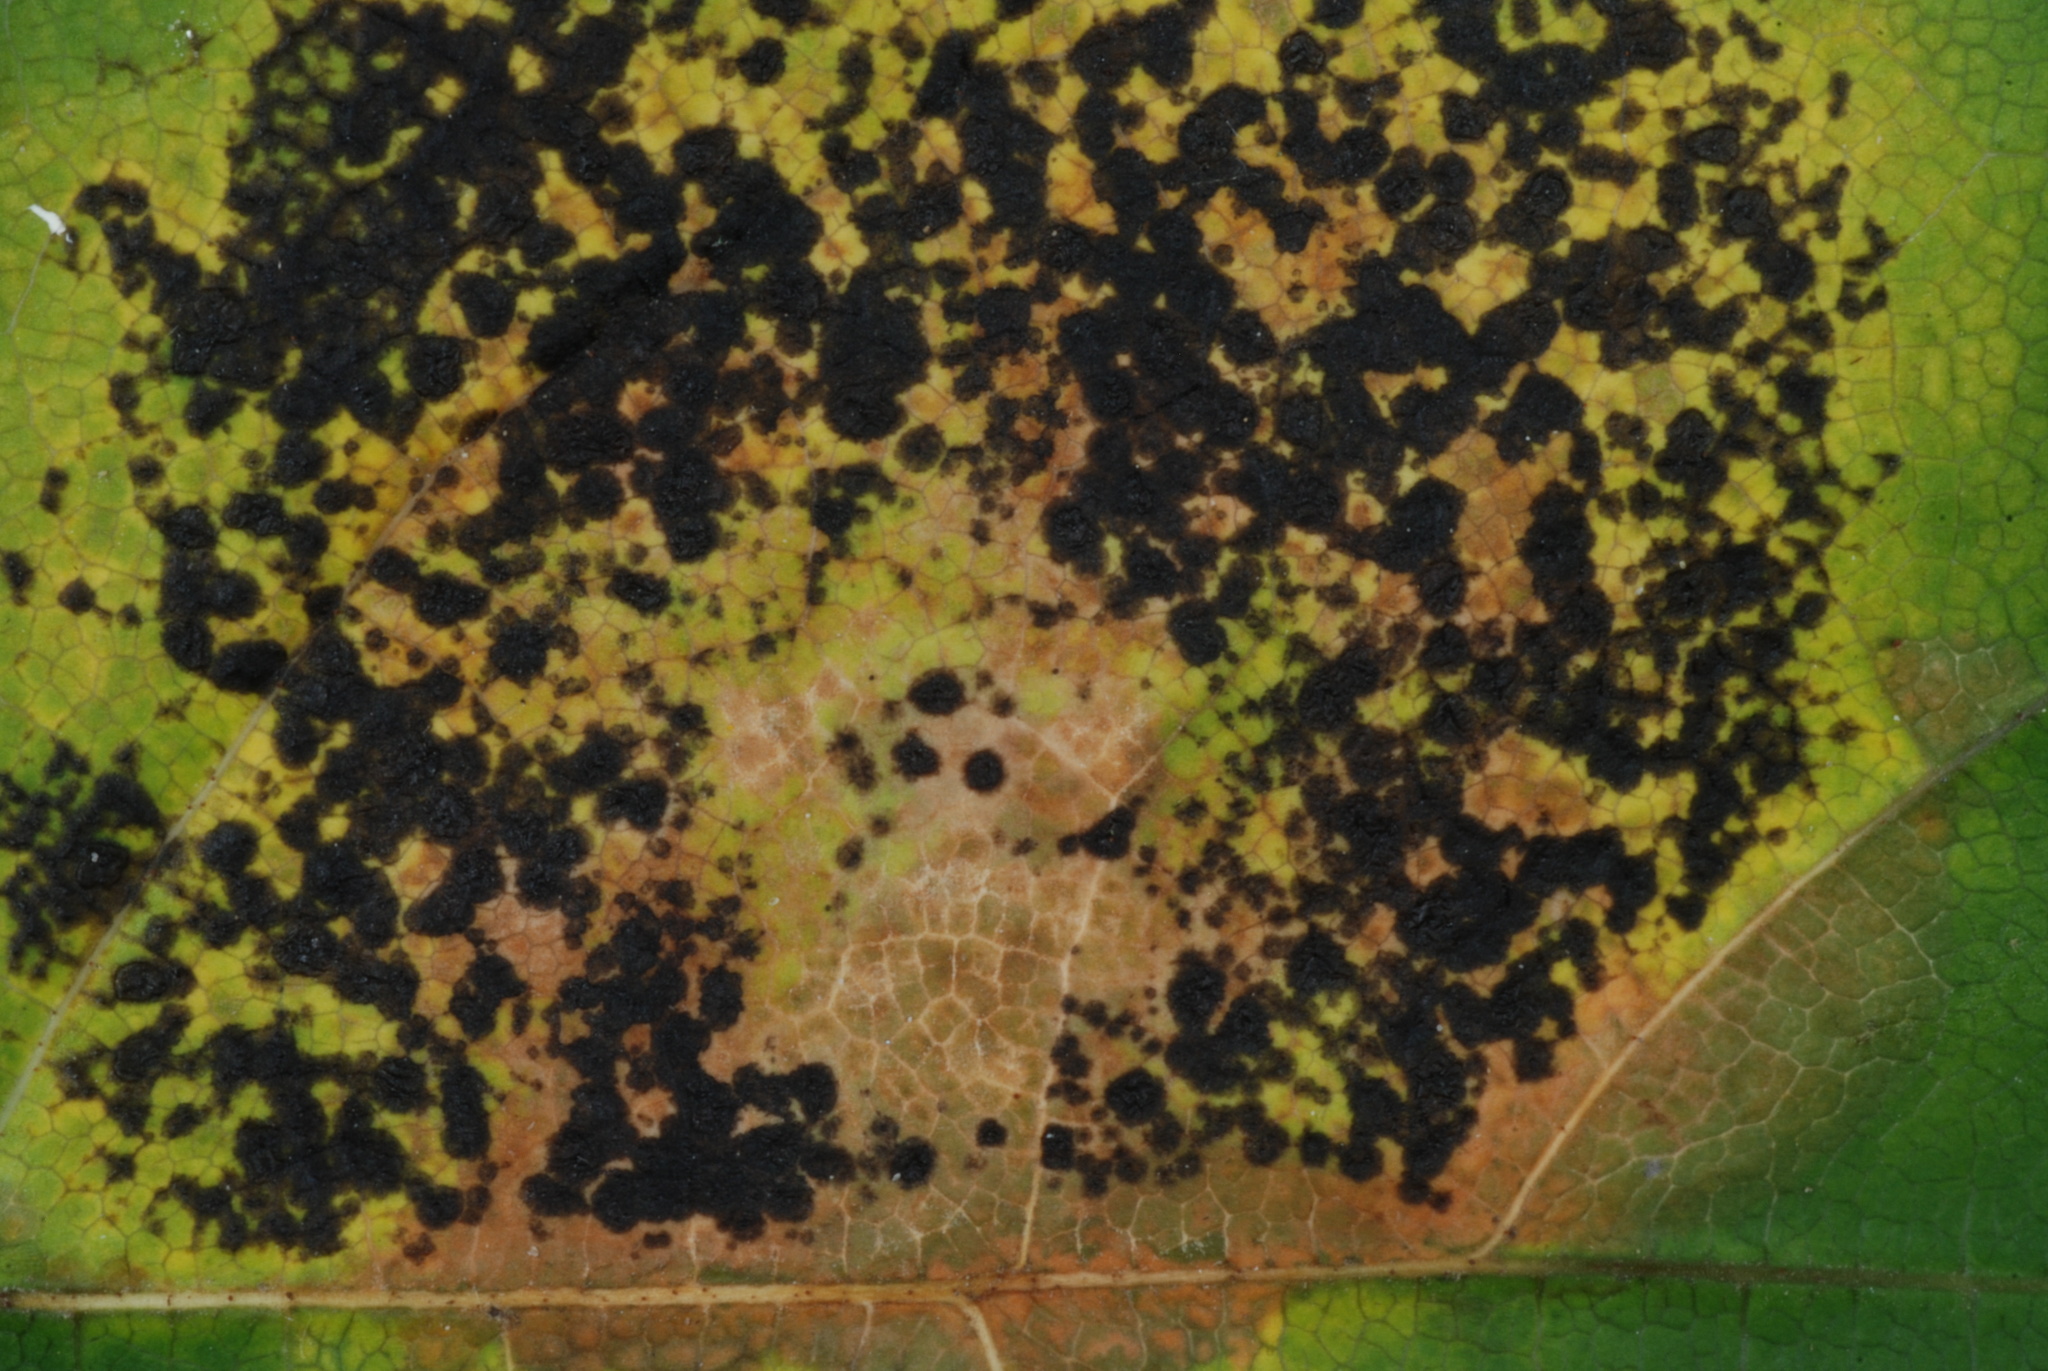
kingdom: Fungi
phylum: Ascomycota
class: Leotiomycetes
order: Rhytismatales
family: Rhytismataceae
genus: Rhytisma
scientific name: Rhytisma acerinum
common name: European tar spot
